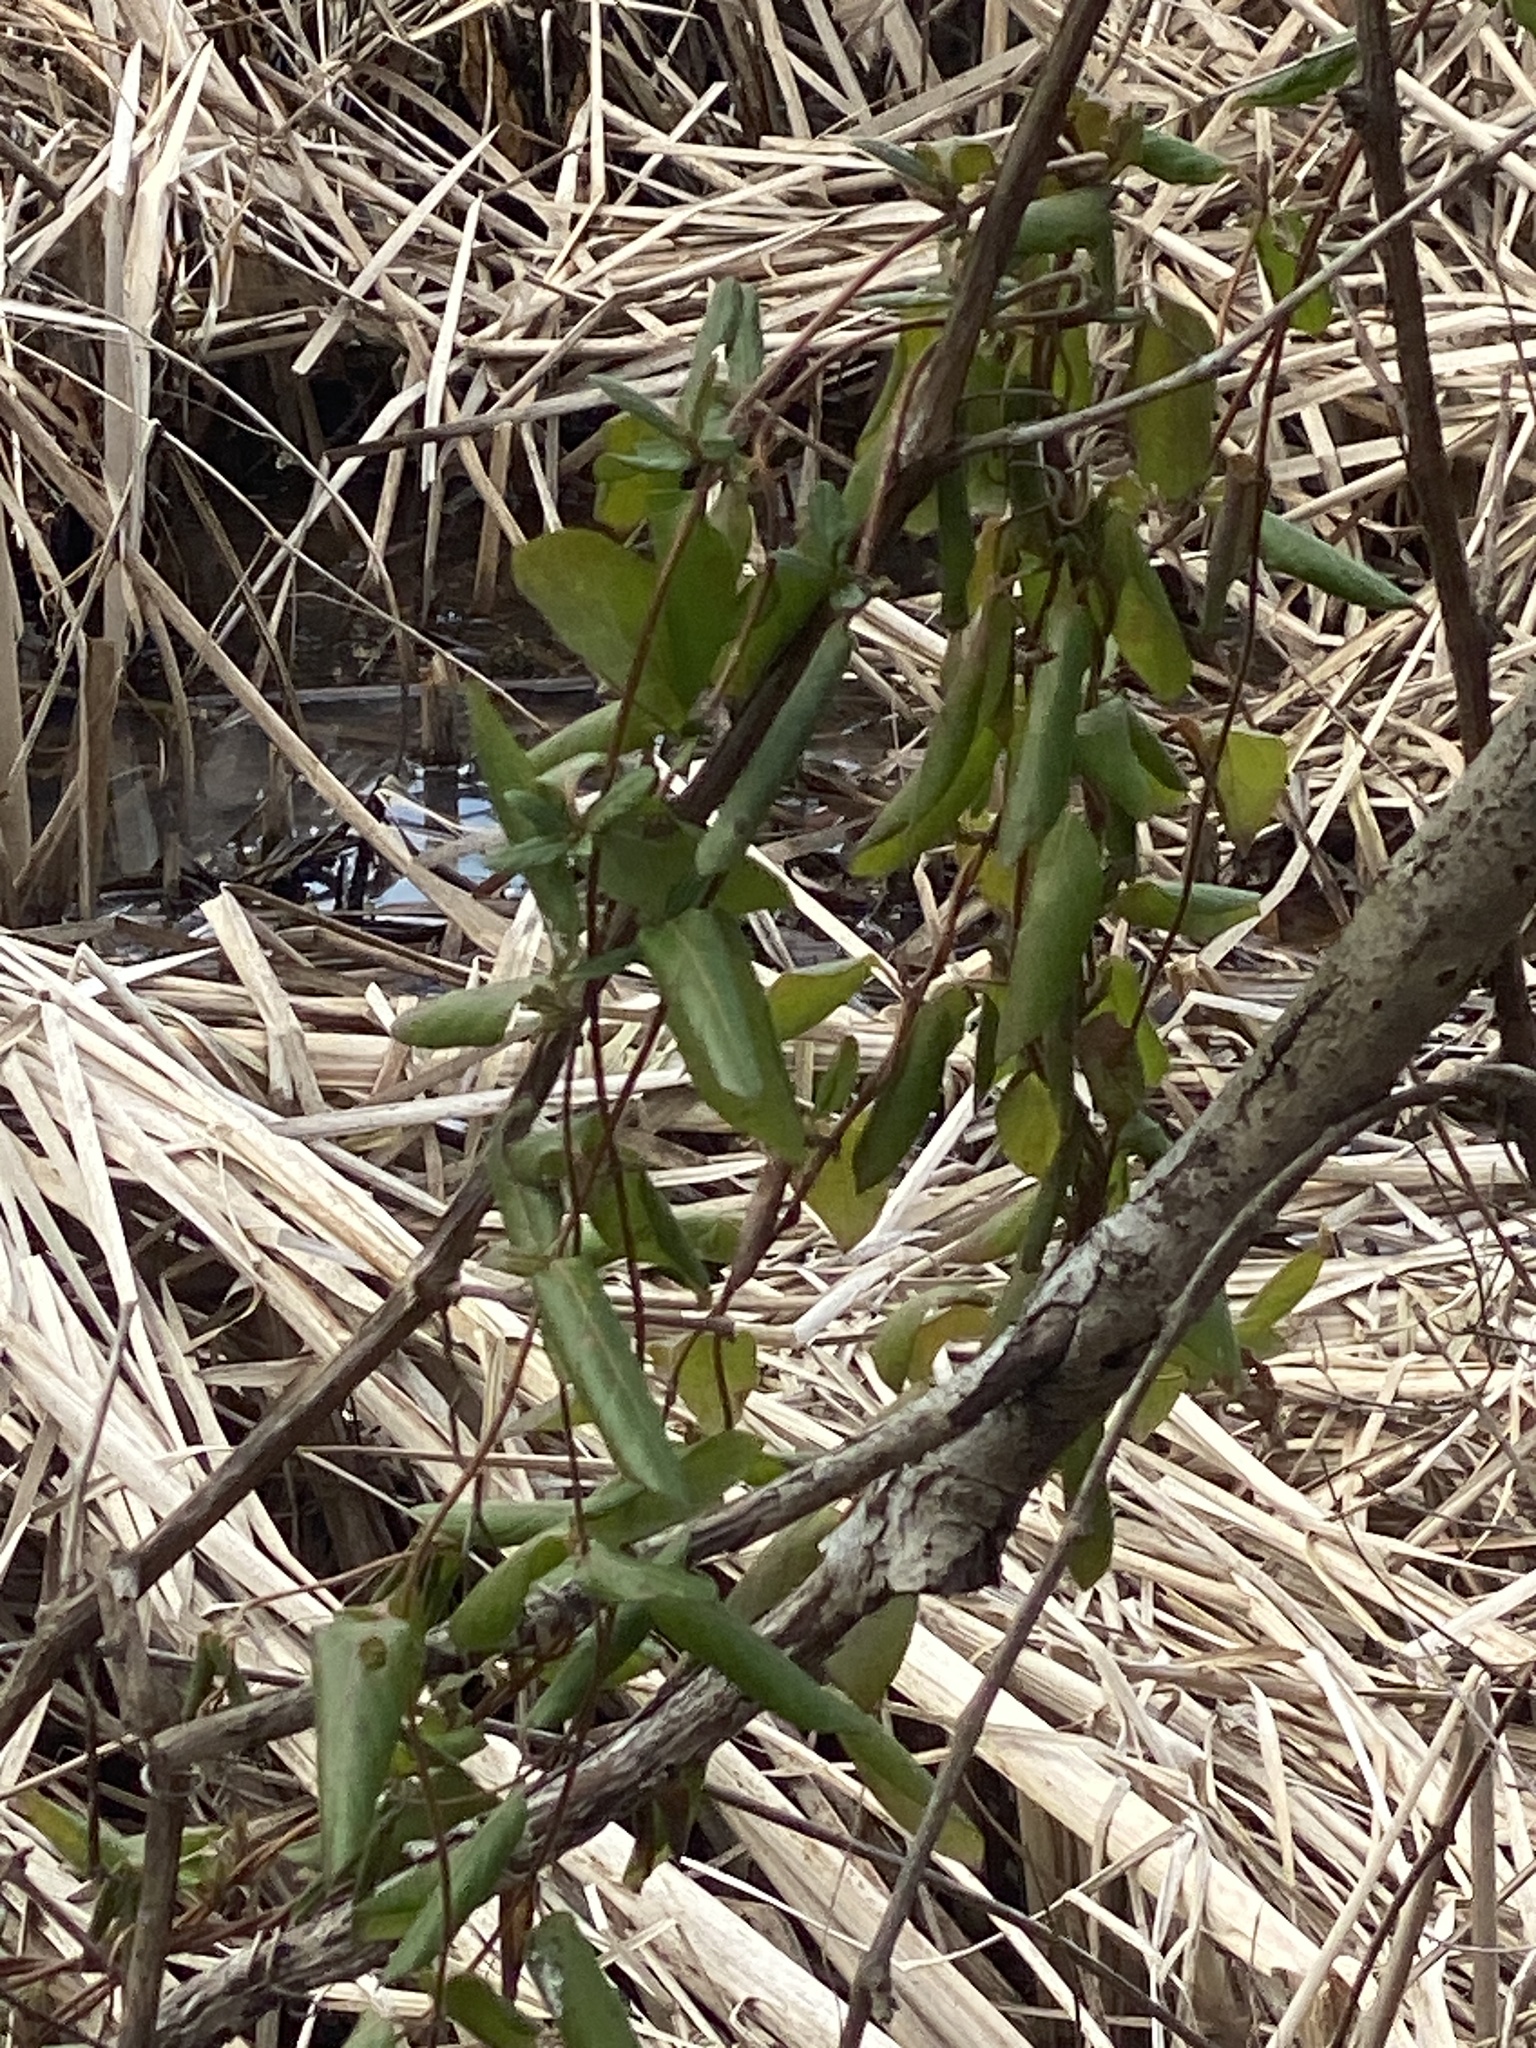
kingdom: Plantae
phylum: Tracheophyta
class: Magnoliopsida
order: Dipsacales
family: Caprifoliaceae
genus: Lonicera
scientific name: Lonicera japonica
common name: Japanese honeysuckle
